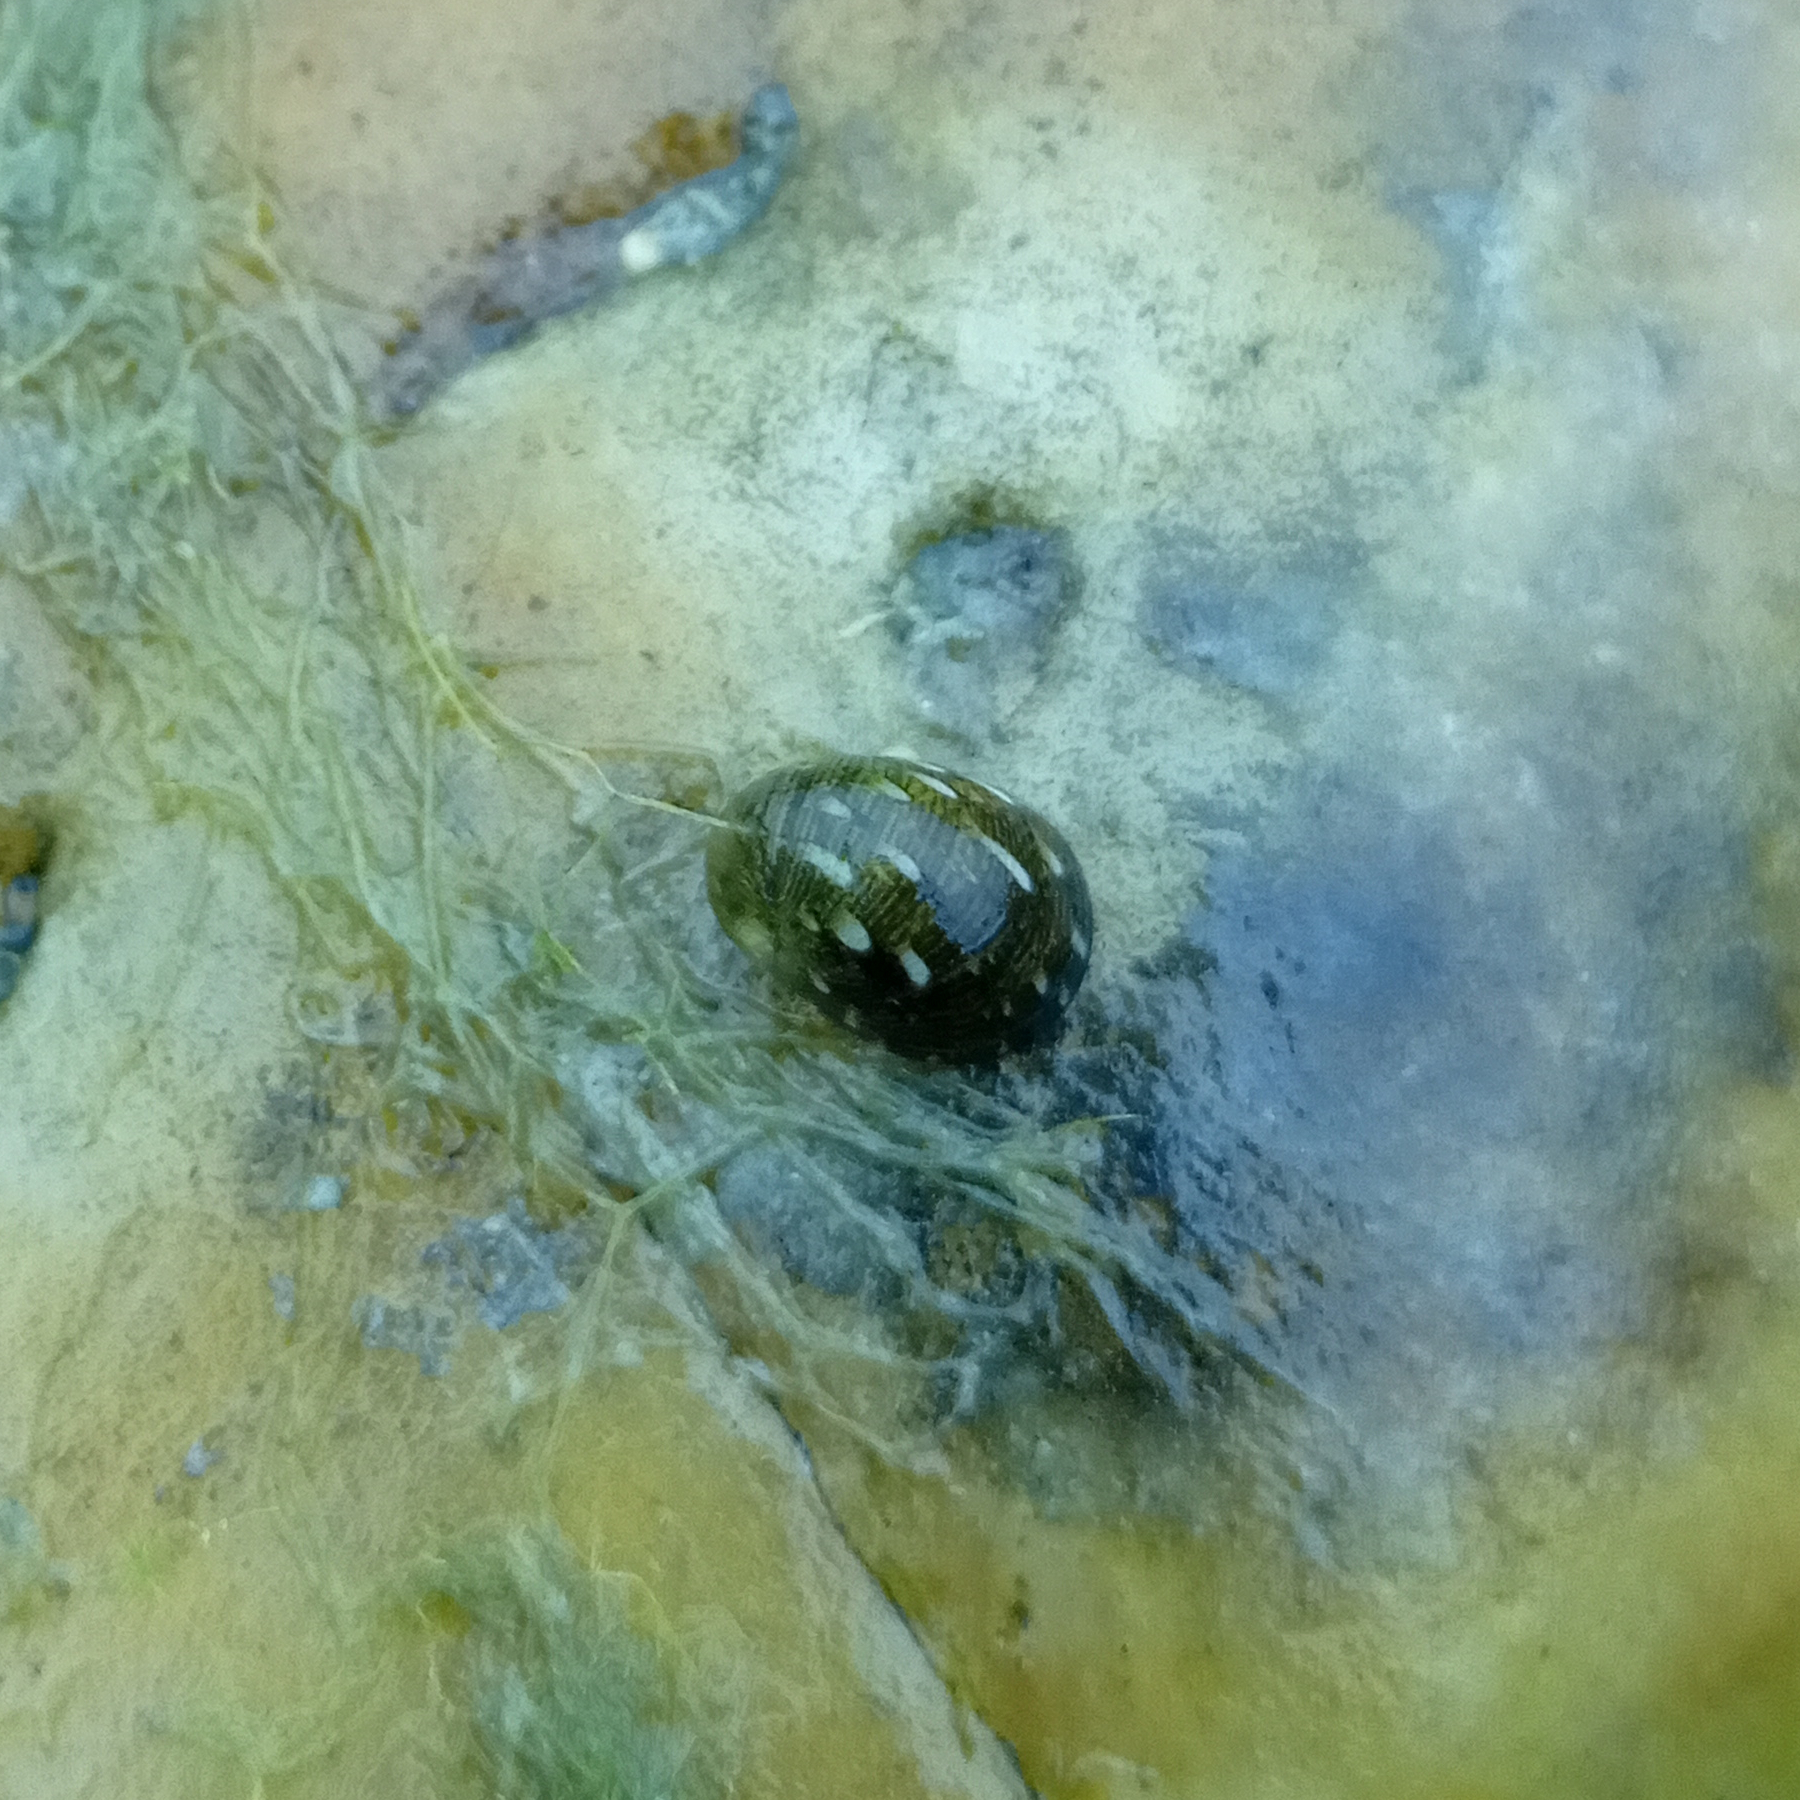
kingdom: Animalia
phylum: Mollusca
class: Gastropoda
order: Cycloneritida
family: Neritidae
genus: Theodoxus
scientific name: Theodoxus fluviatilis
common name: River nerite
